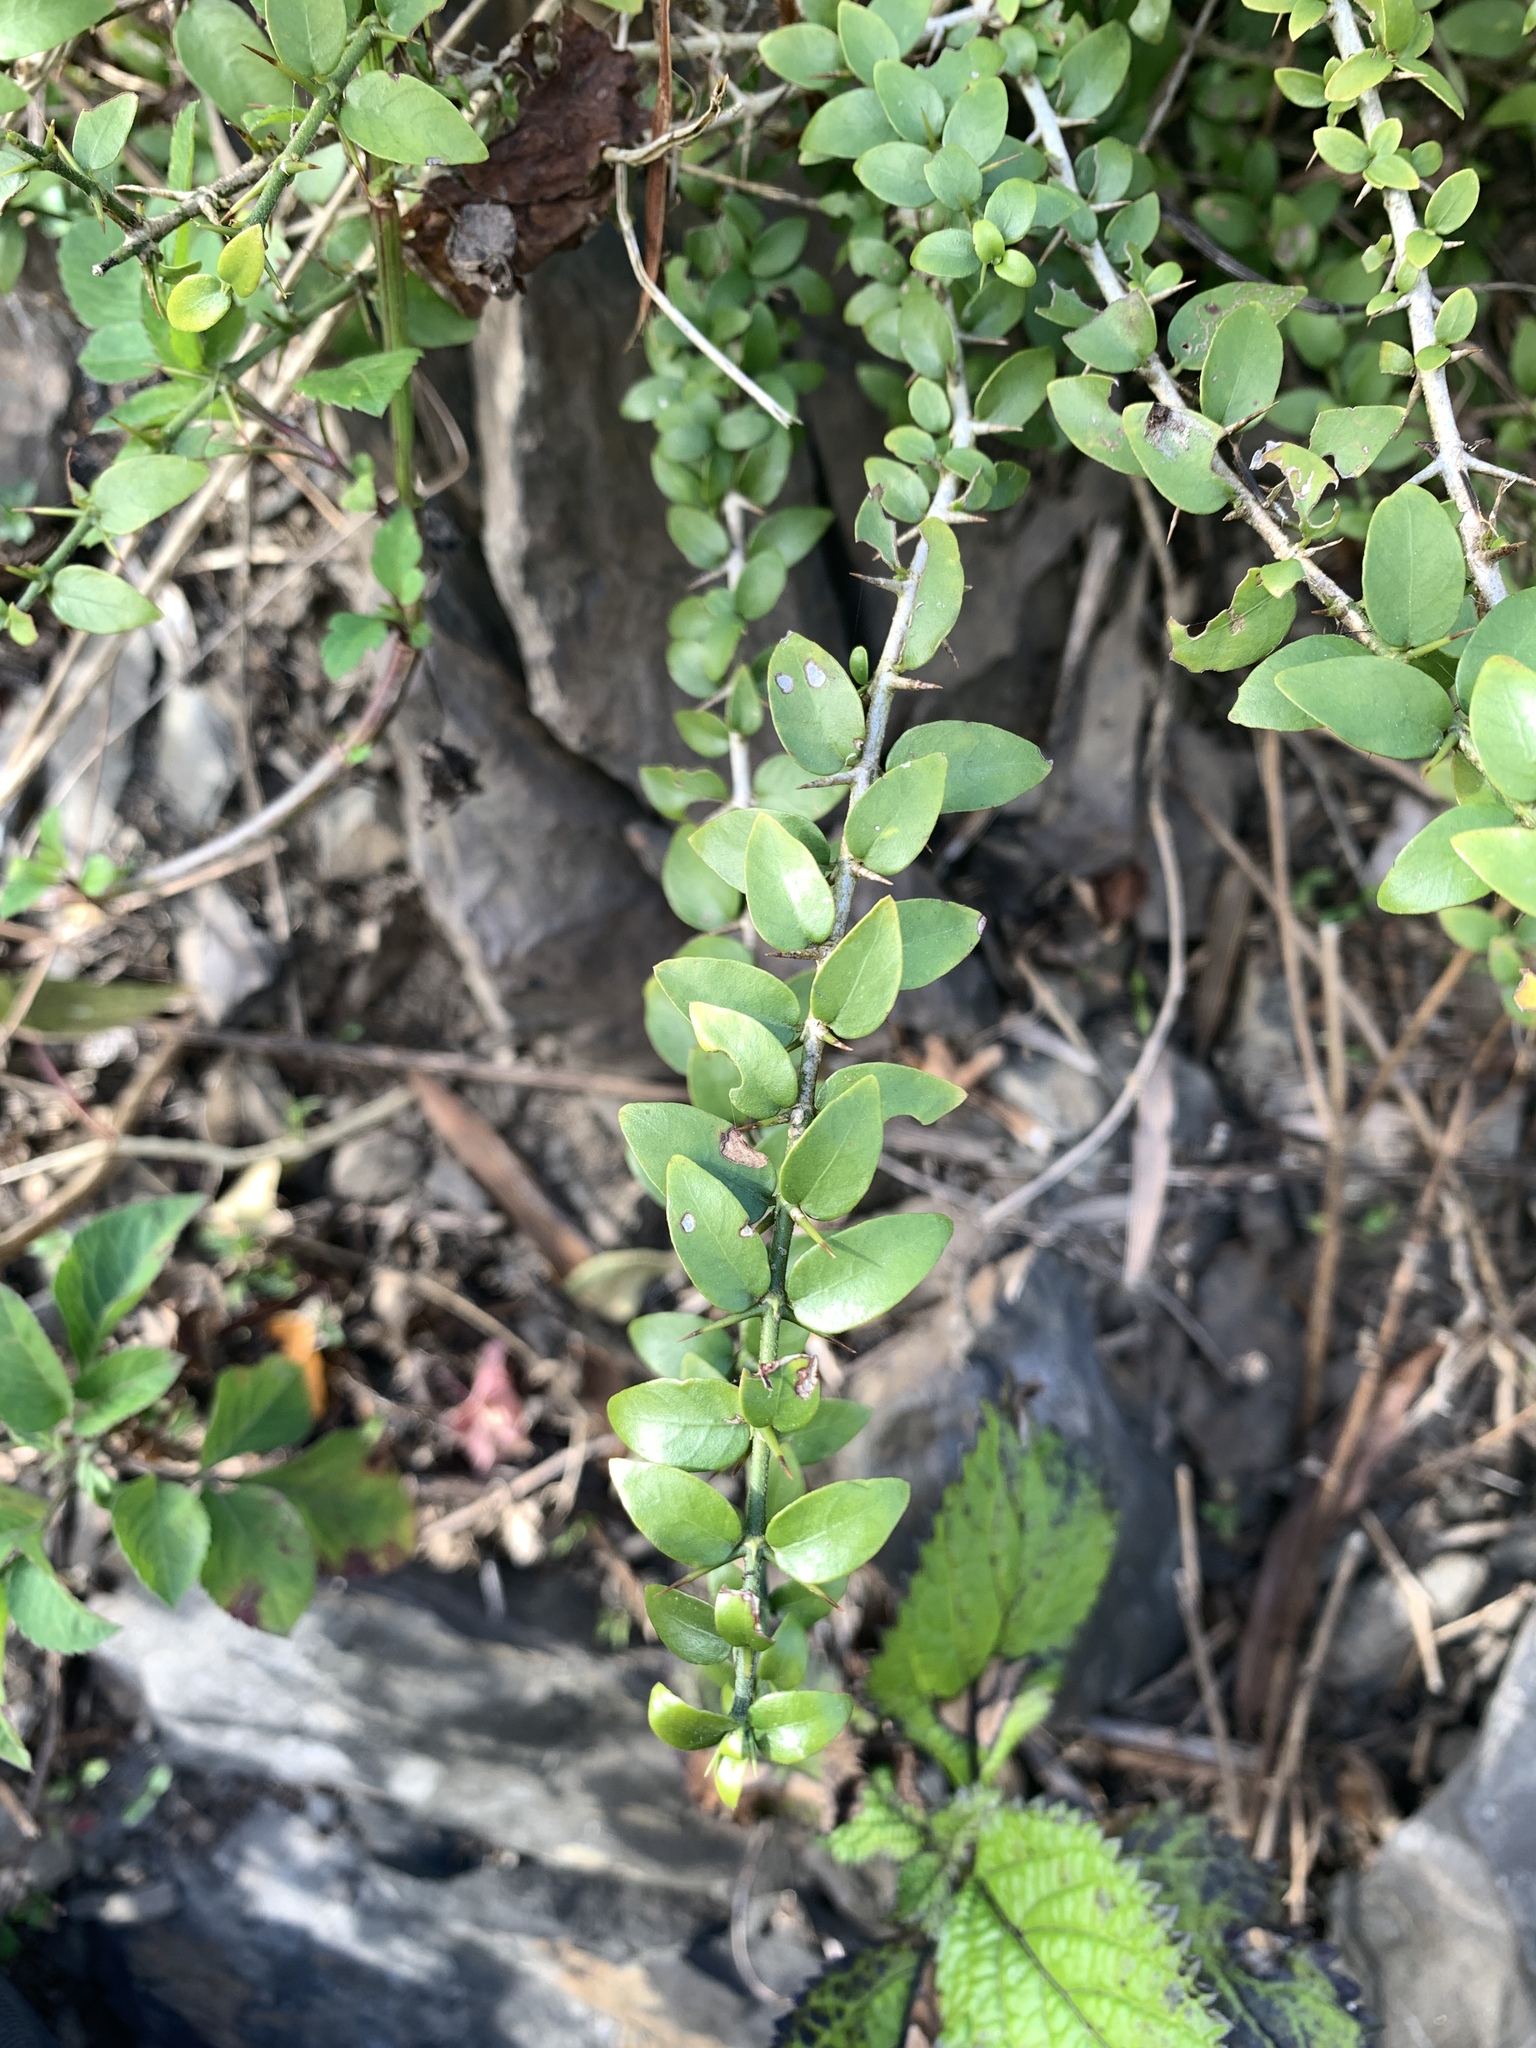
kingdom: Plantae
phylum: Tracheophyta
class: Magnoliopsida
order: Gentianales
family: Rubiaceae
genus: Benkara
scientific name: Benkara sinensis
